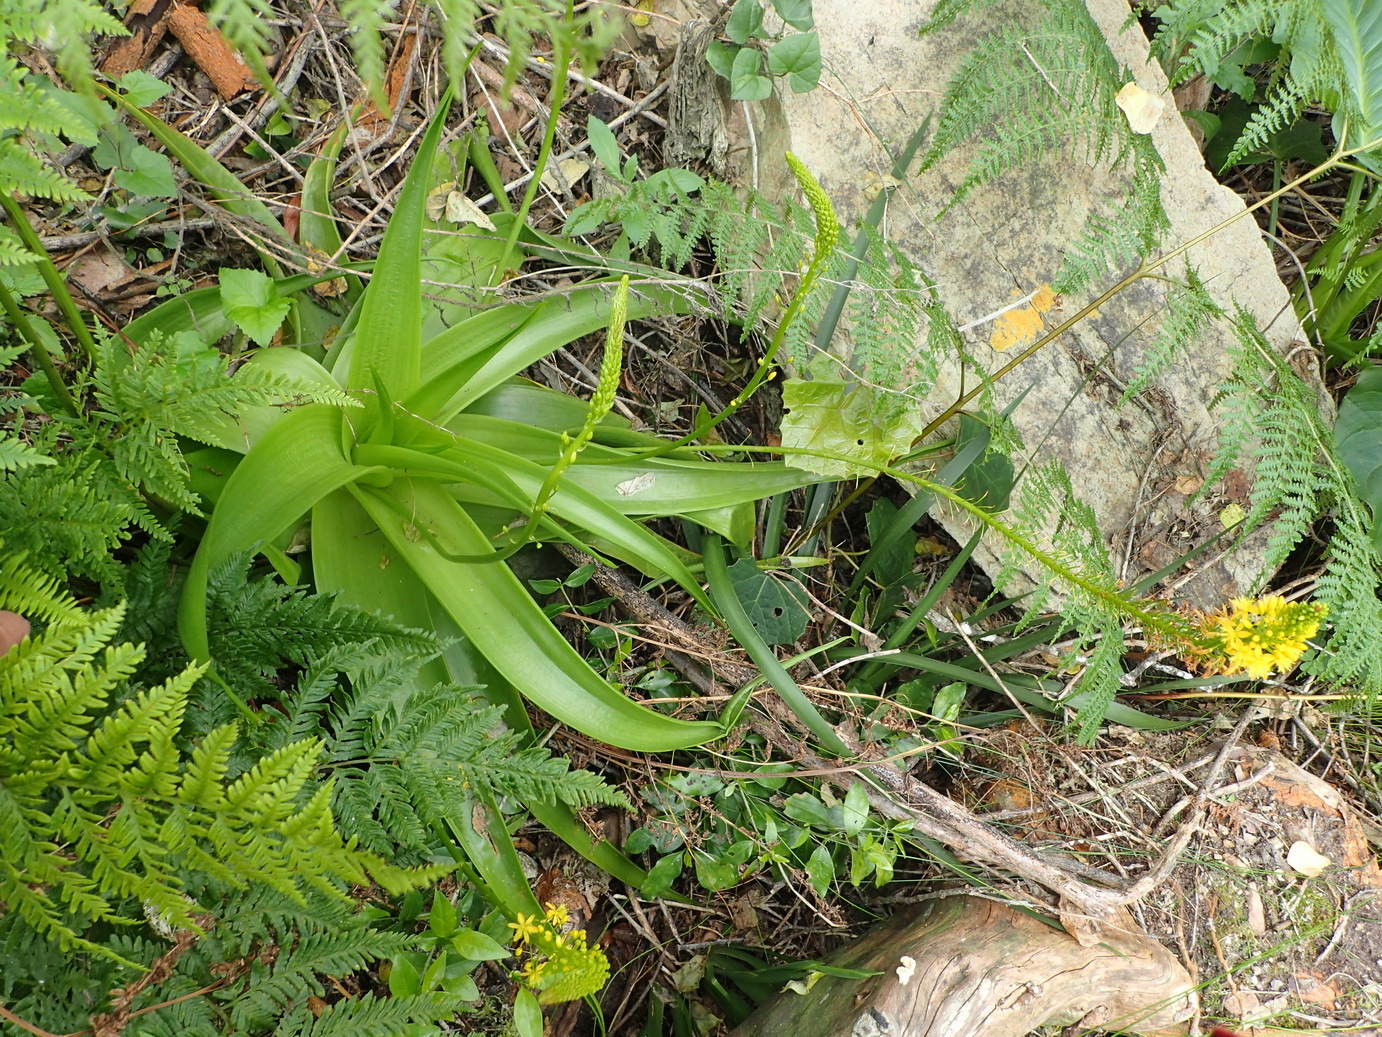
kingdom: Plantae
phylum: Tracheophyta
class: Liliopsida
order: Asparagales
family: Asphodelaceae
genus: Bulbine
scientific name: Bulbine latifolia
